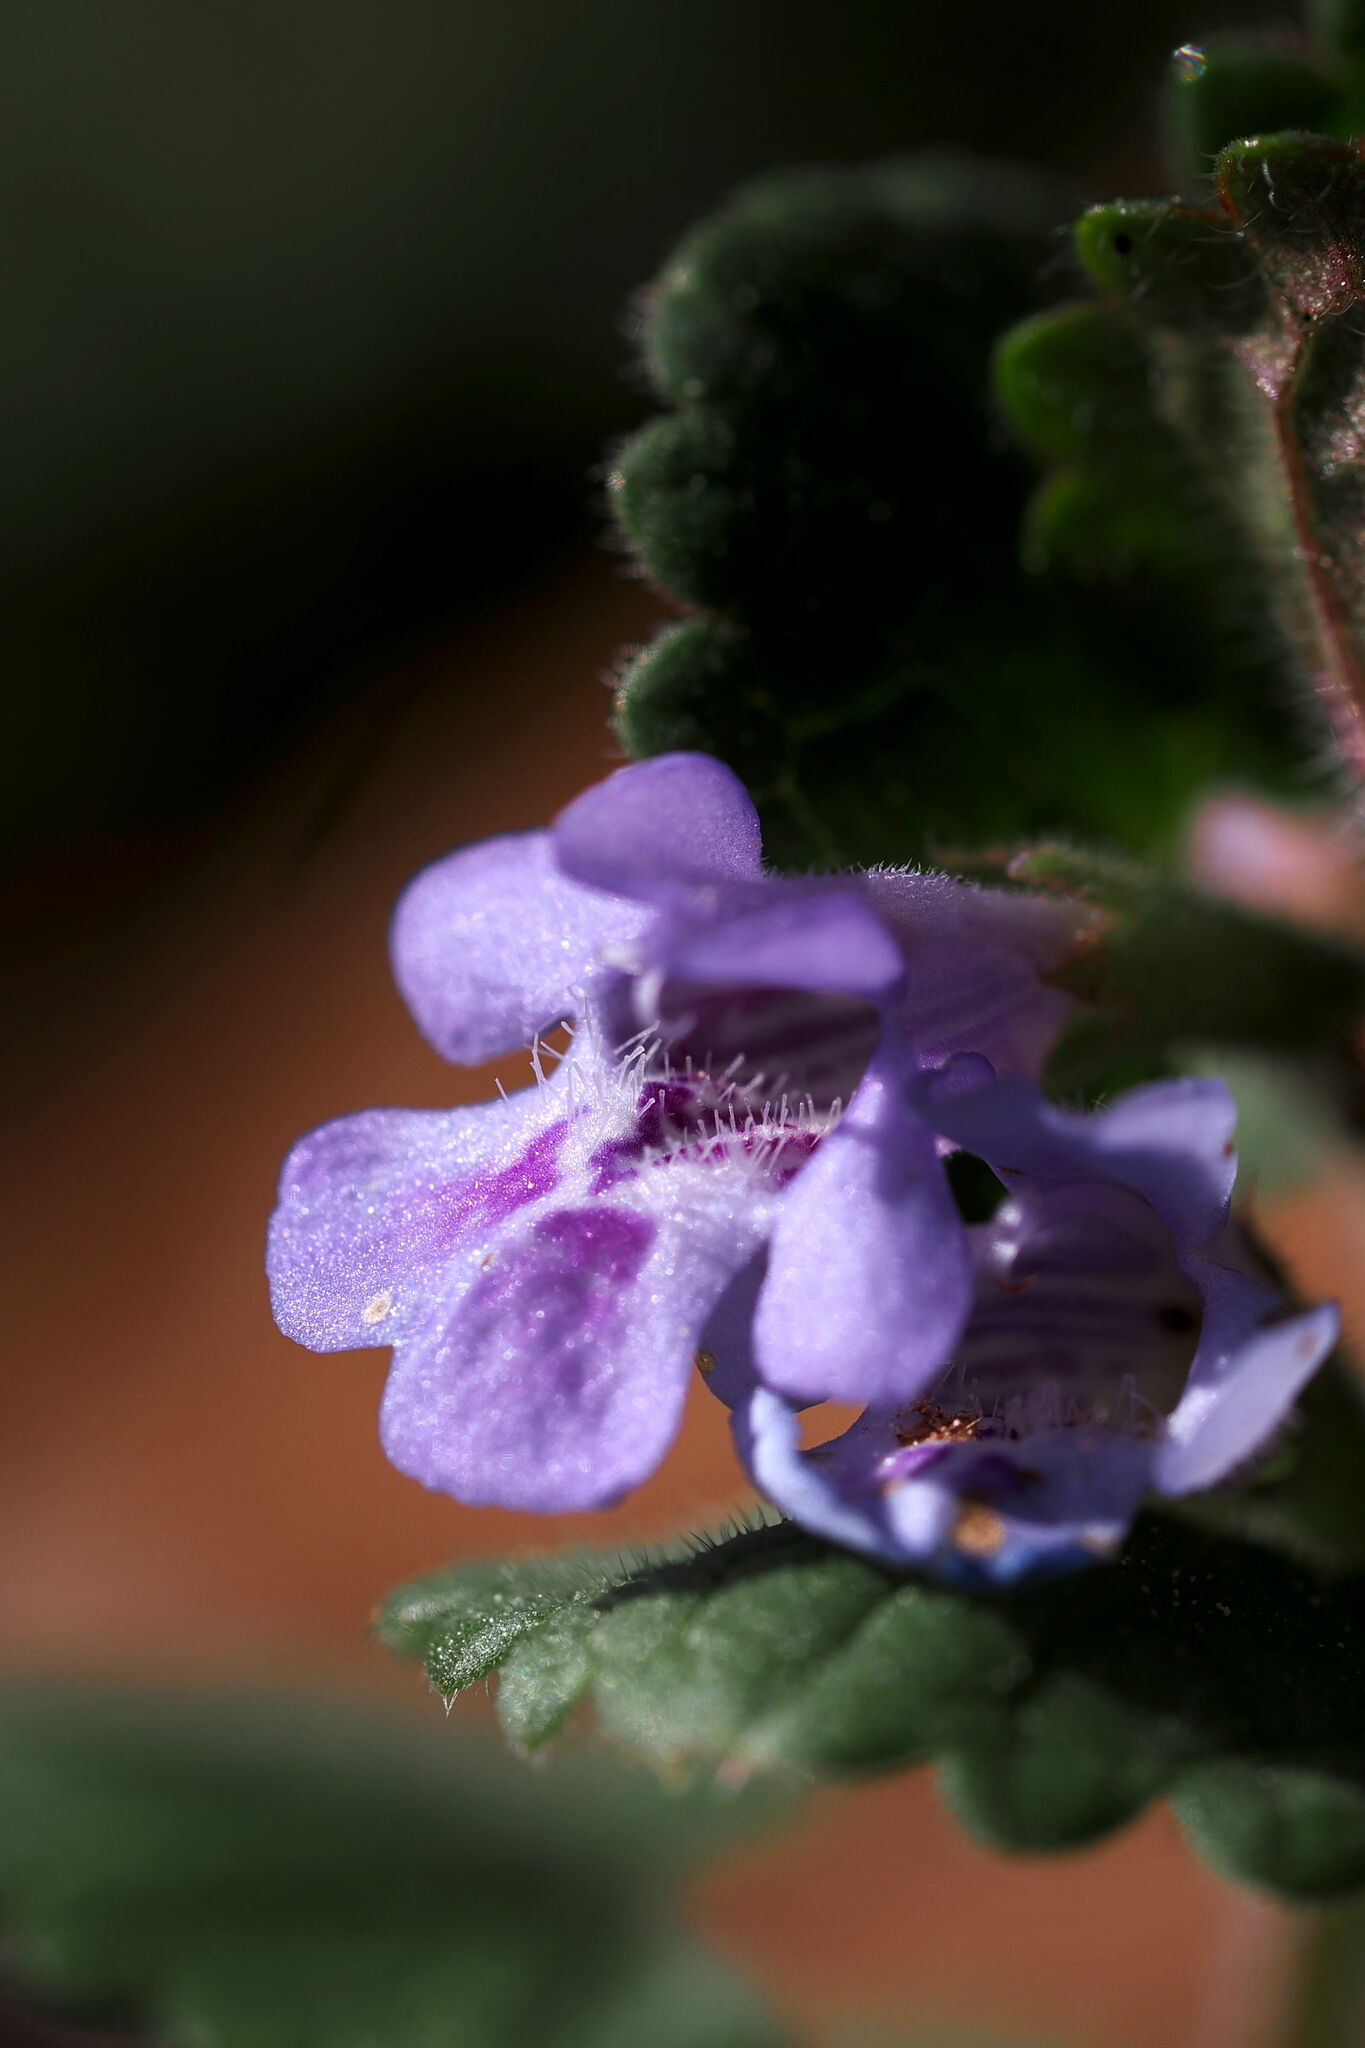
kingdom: Plantae
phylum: Tracheophyta
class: Magnoliopsida
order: Lamiales
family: Lamiaceae
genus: Glechoma
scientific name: Glechoma hederacea
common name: Ground ivy
